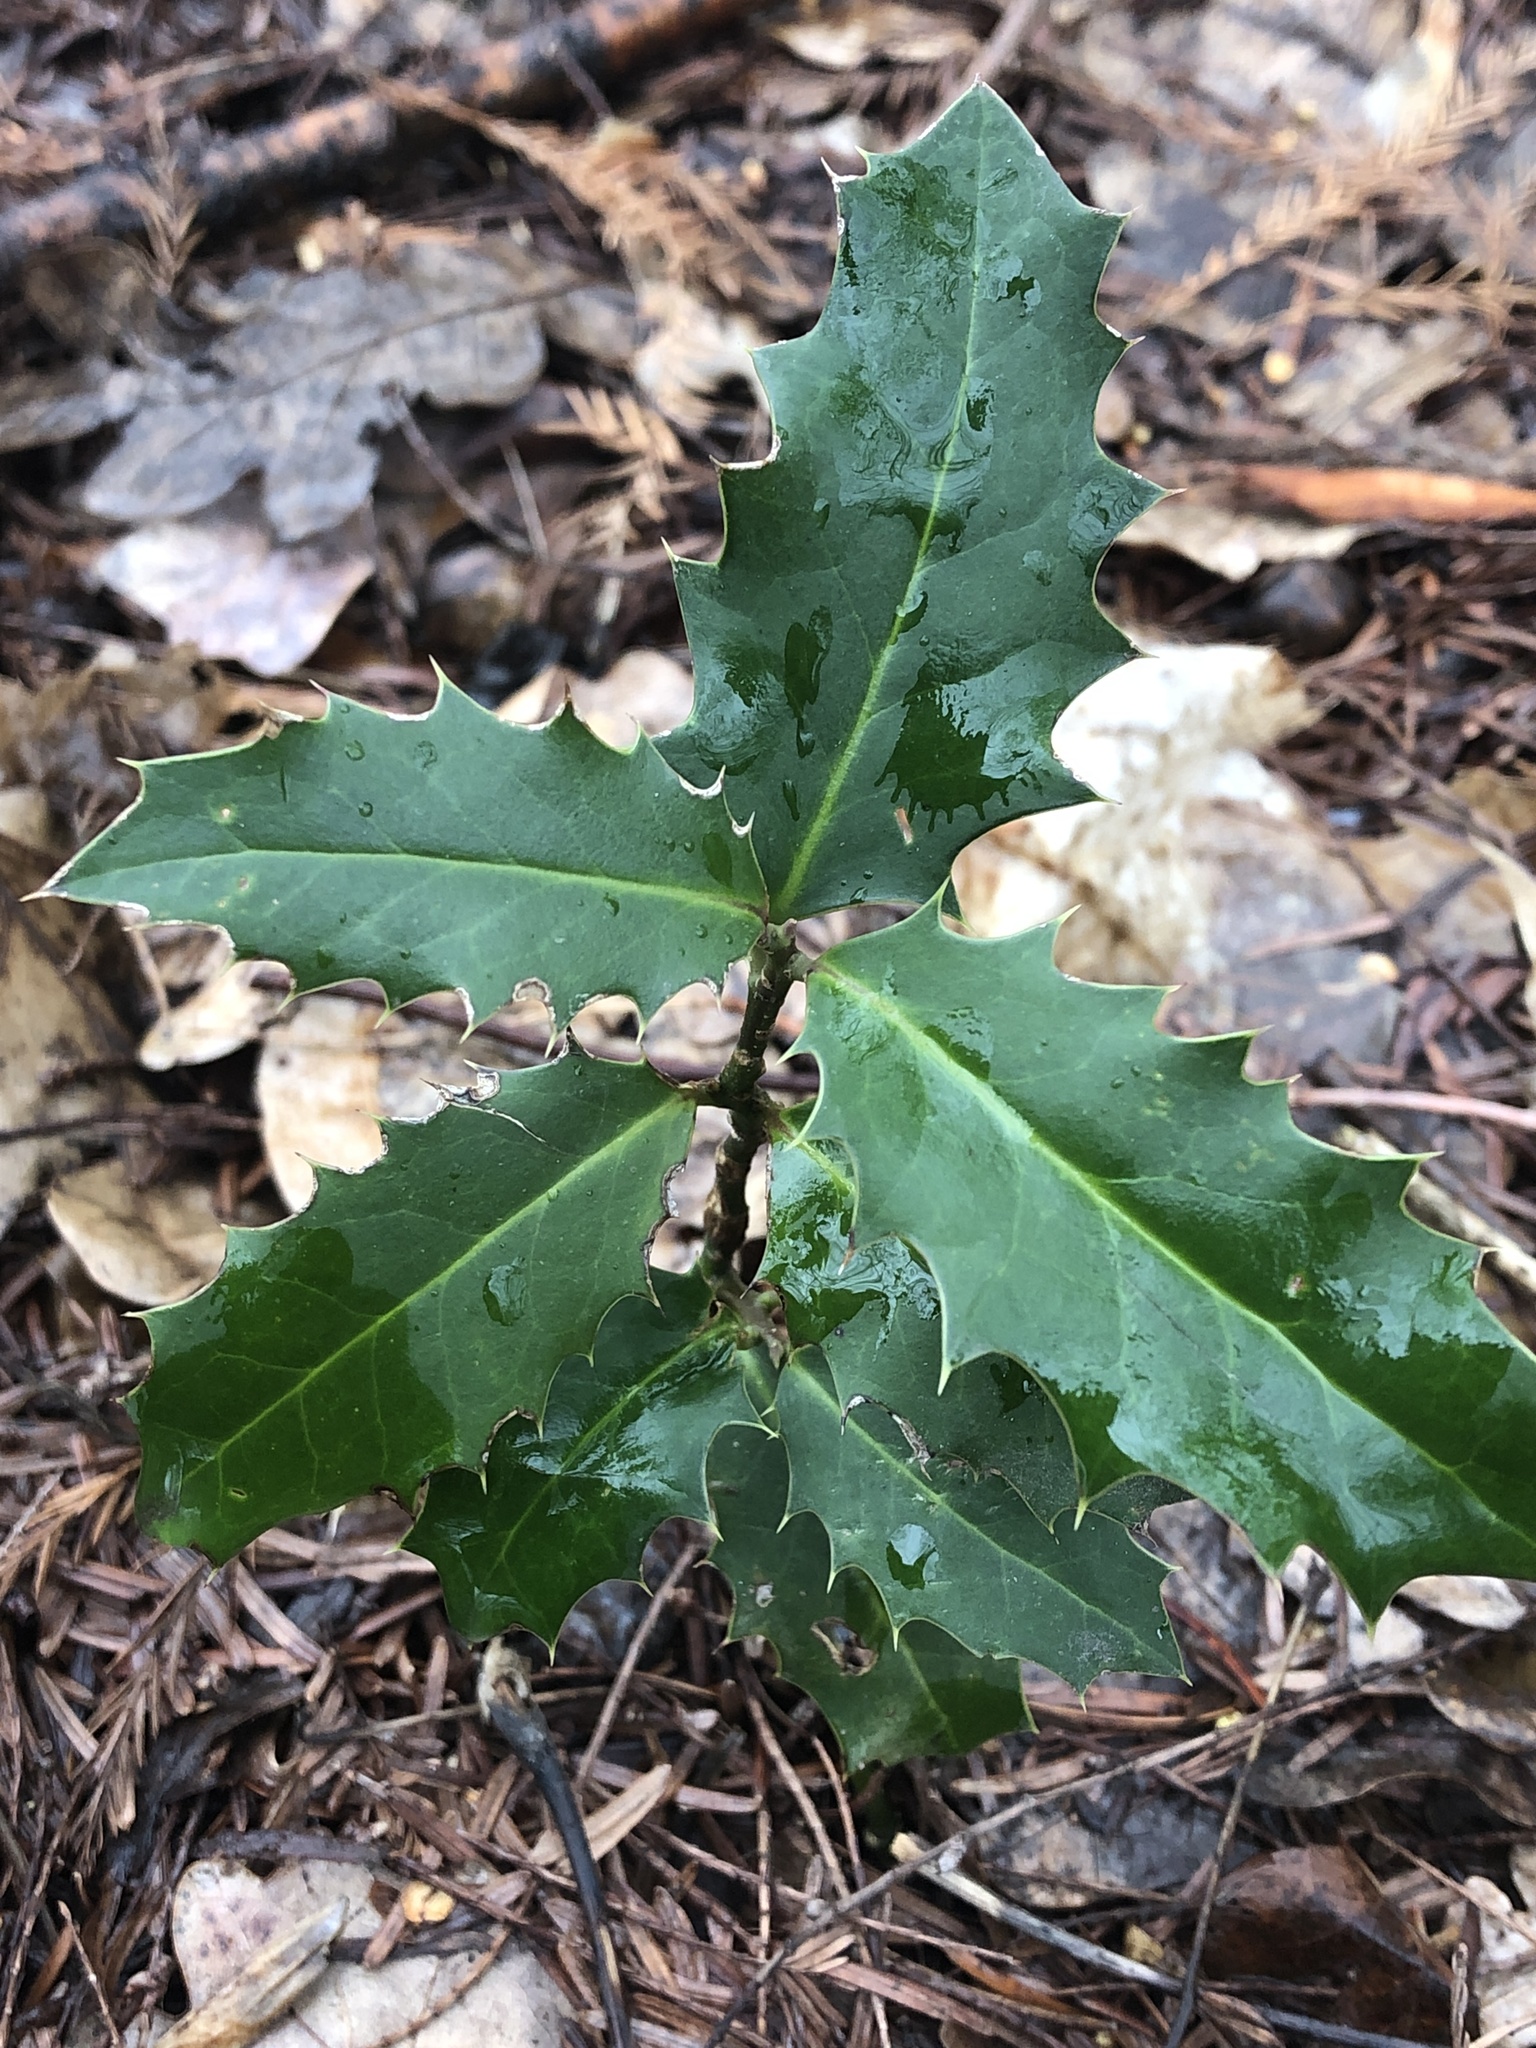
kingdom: Plantae
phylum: Tracheophyta
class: Magnoliopsida
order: Aquifoliales
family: Aquifoliaceae
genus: Ilex
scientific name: Ilex aquifolium
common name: English holly
